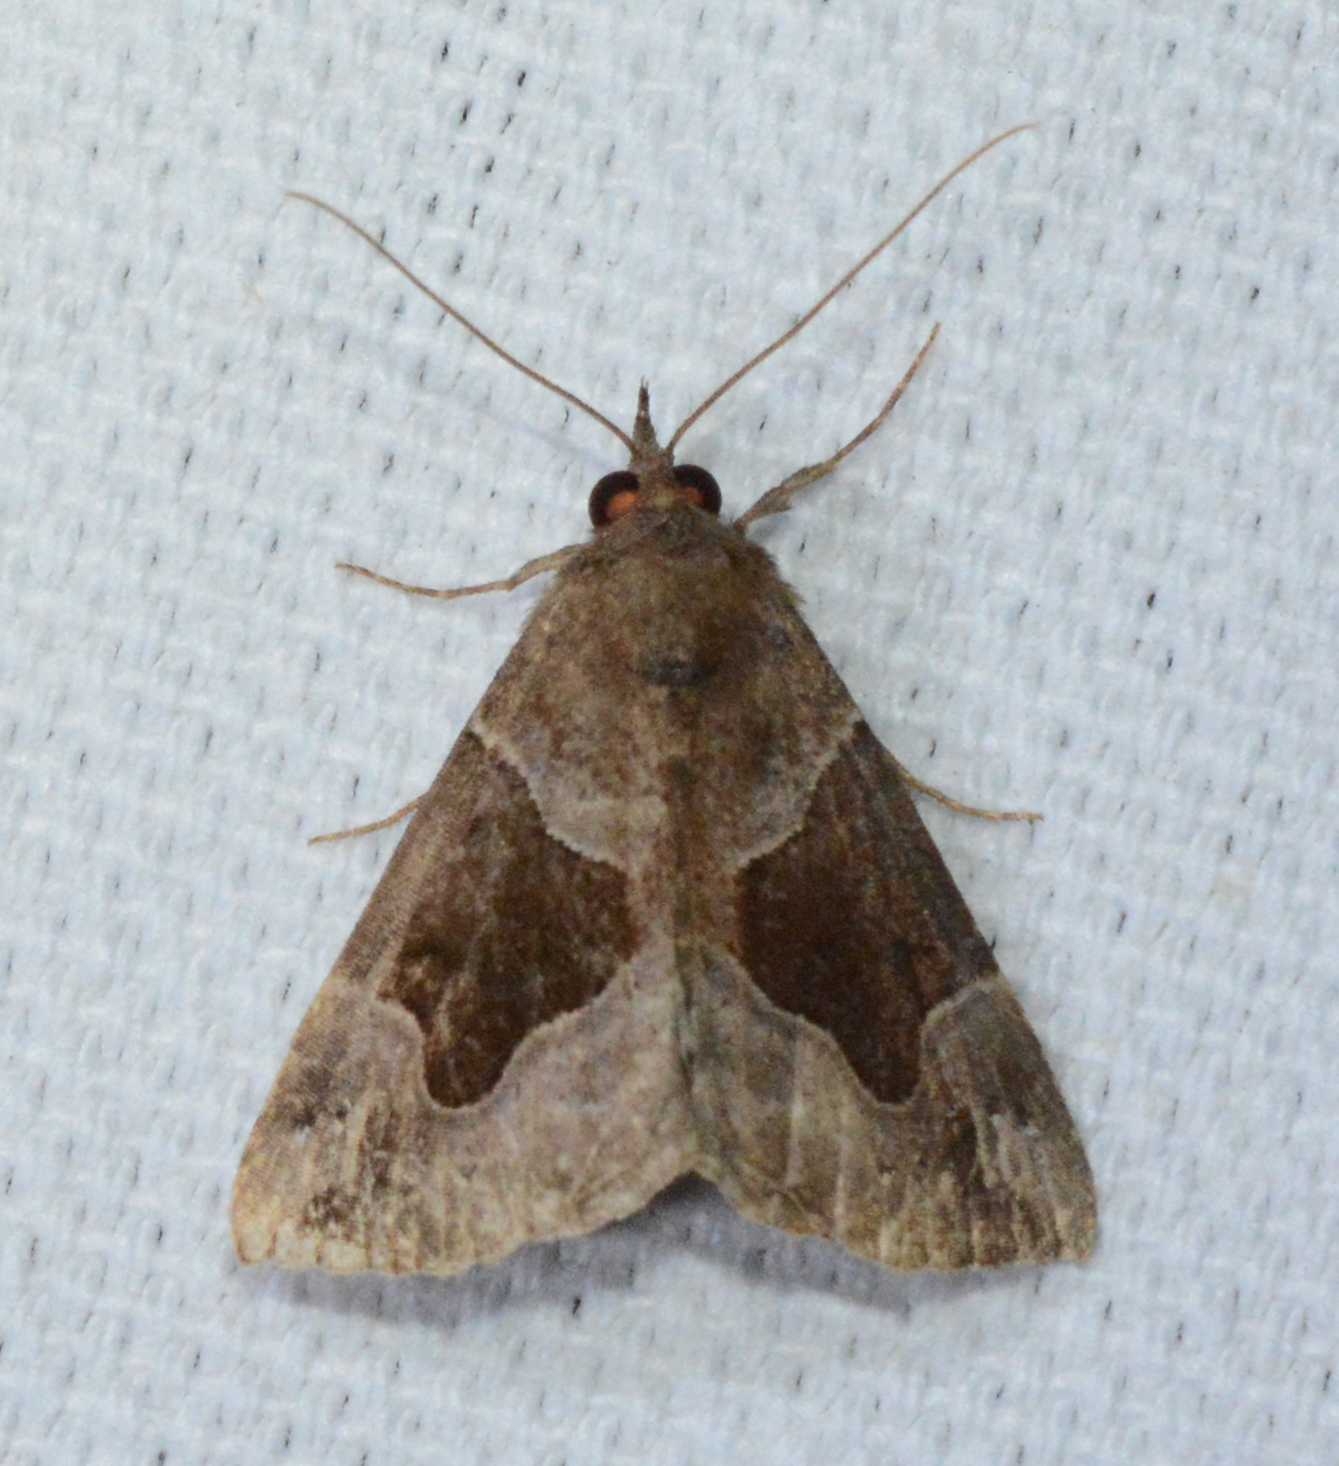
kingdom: Animalia
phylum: Arthropoda
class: Insecta
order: Lepidoptera
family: Erebidae
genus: Hypena
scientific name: Hypena manalis
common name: Flowing-line bomolocha moth
